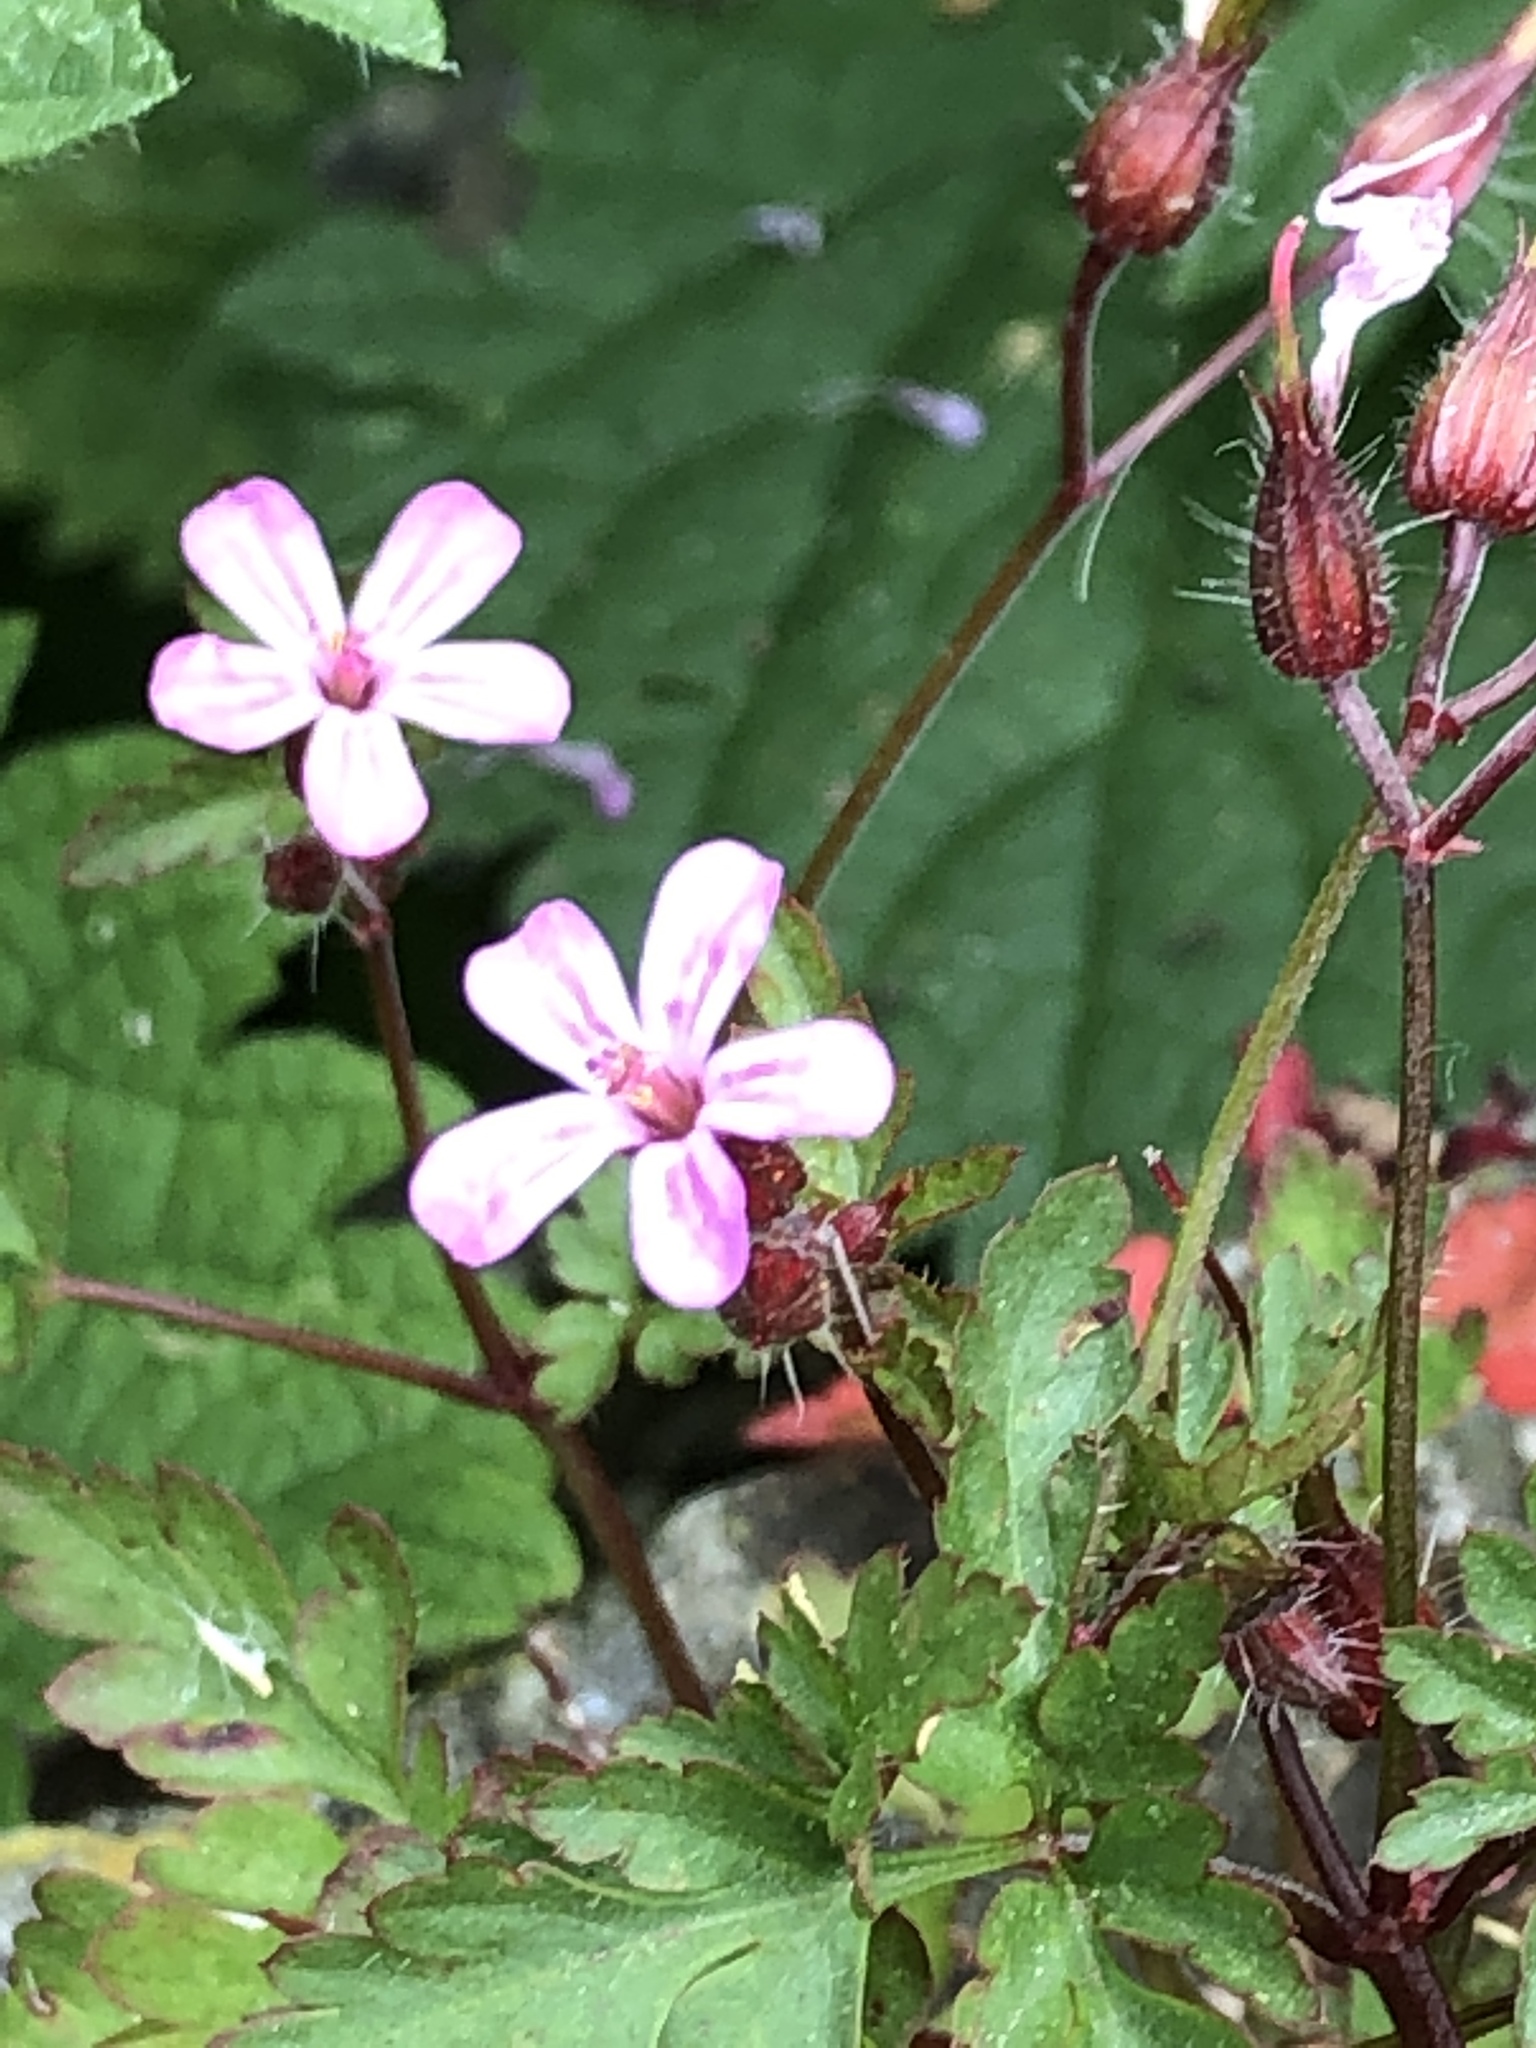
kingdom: Plantae
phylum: Tracheophyta
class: Magnoliopsida
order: Geraniales
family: Geraniaceae
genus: Geranium
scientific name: Geranium robertianum
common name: Herb-robert
